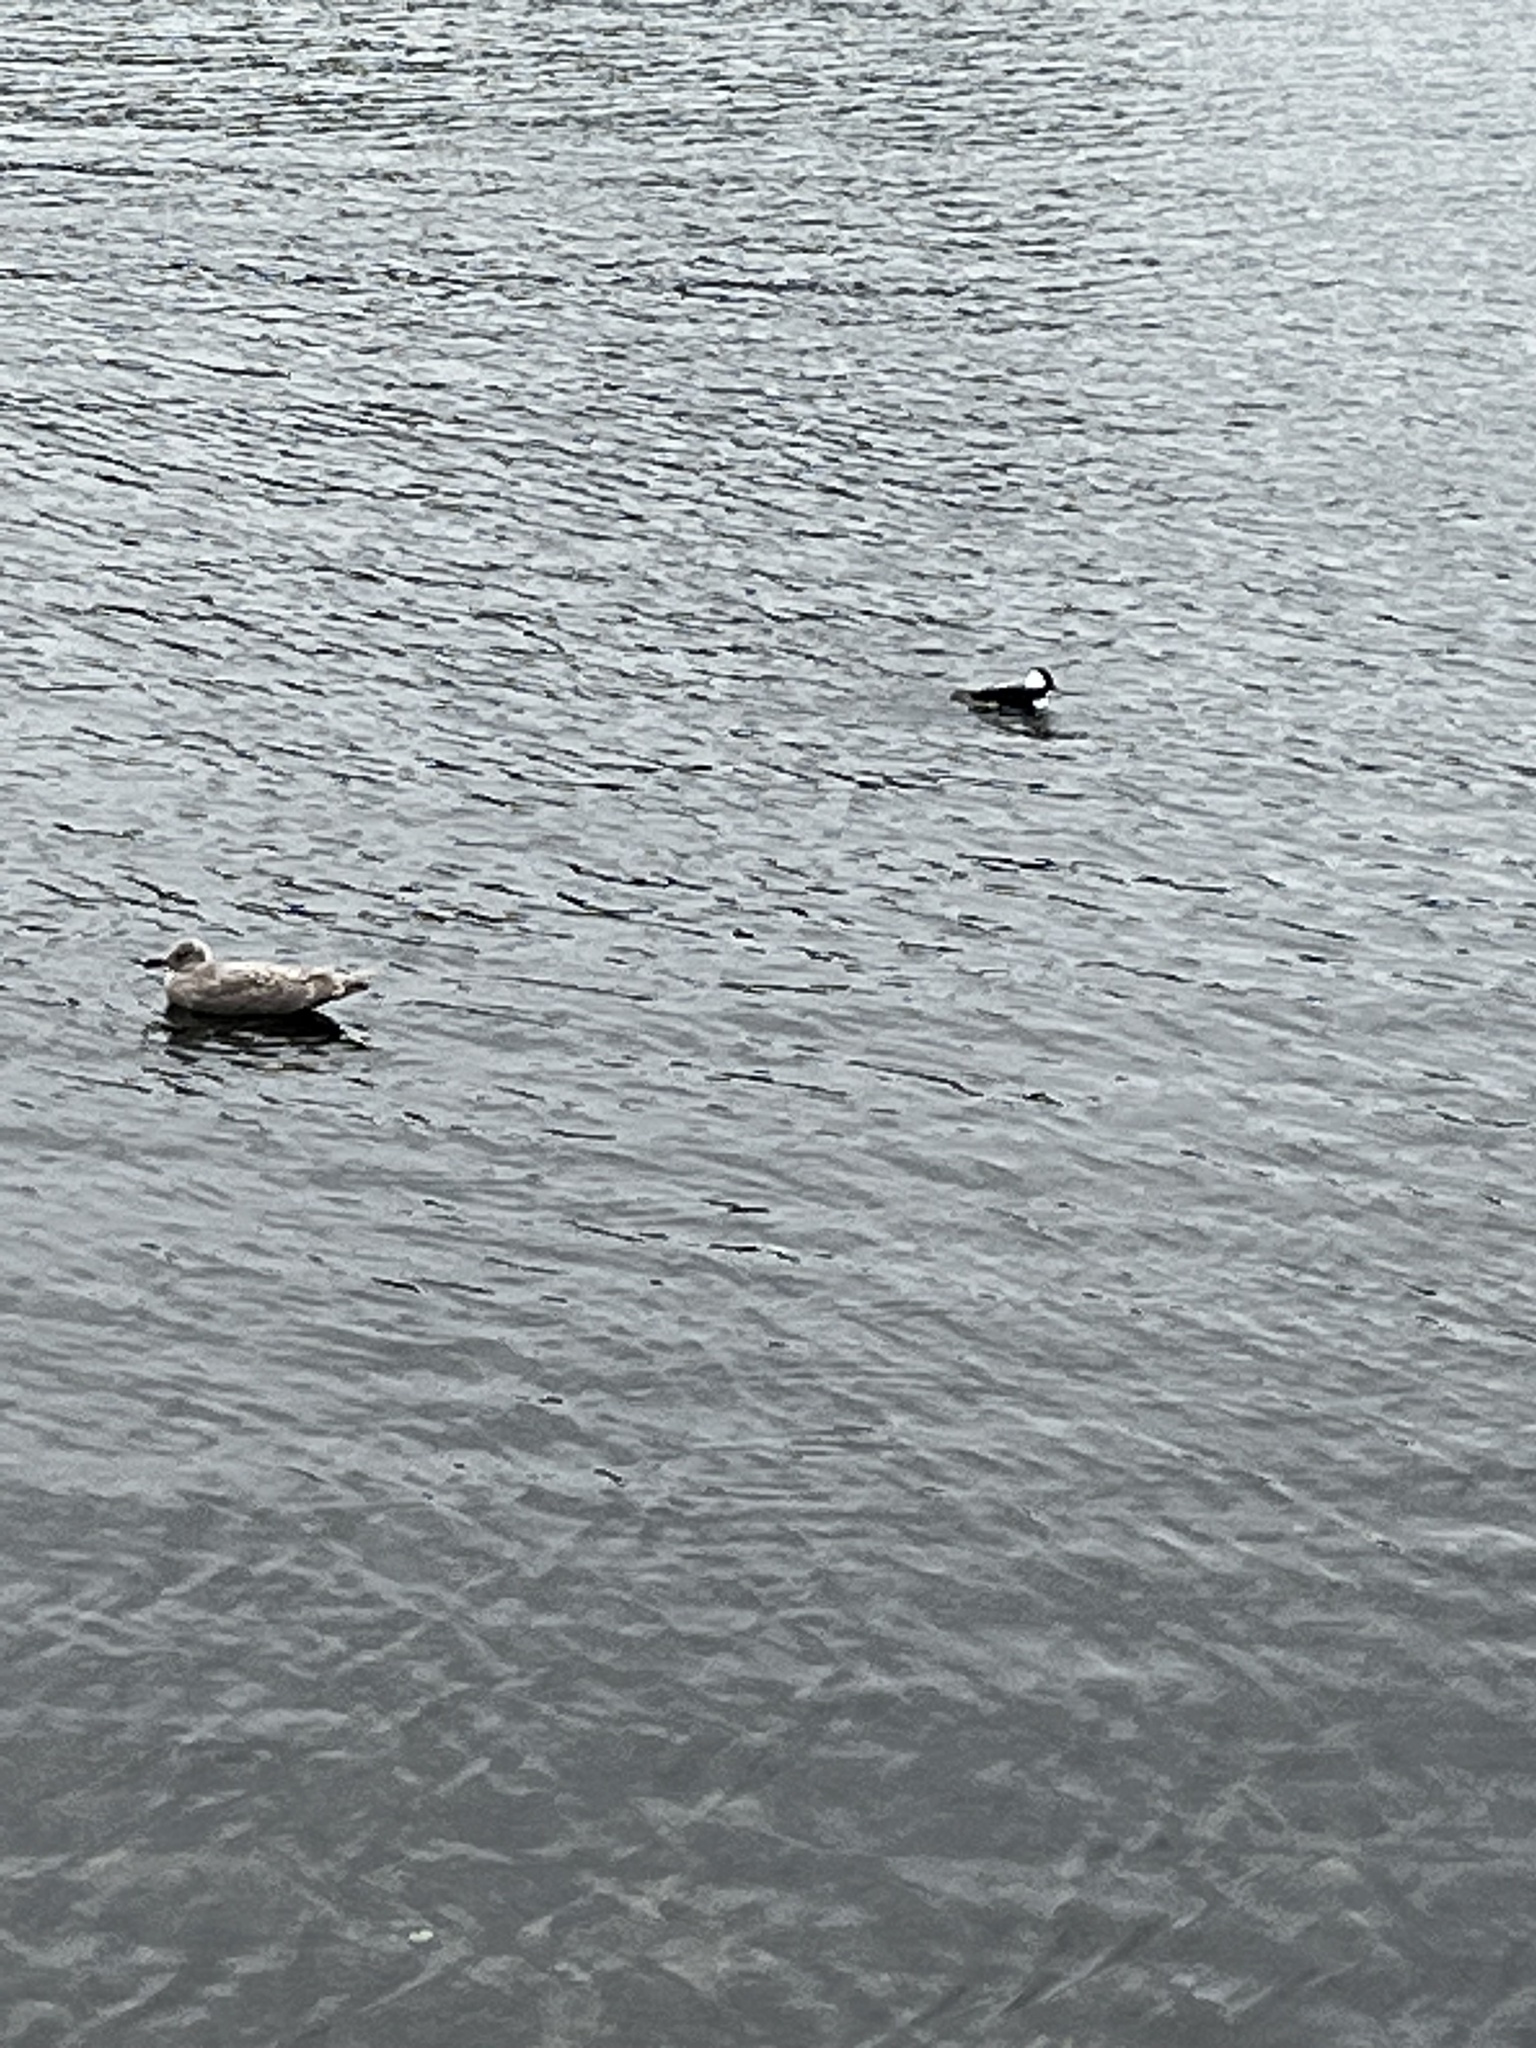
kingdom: Animalia
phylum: Chordata
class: Aves
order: Anseriformes
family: Anatidae
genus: Bucephala
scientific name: Bucephala albeola
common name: Bufflehead
